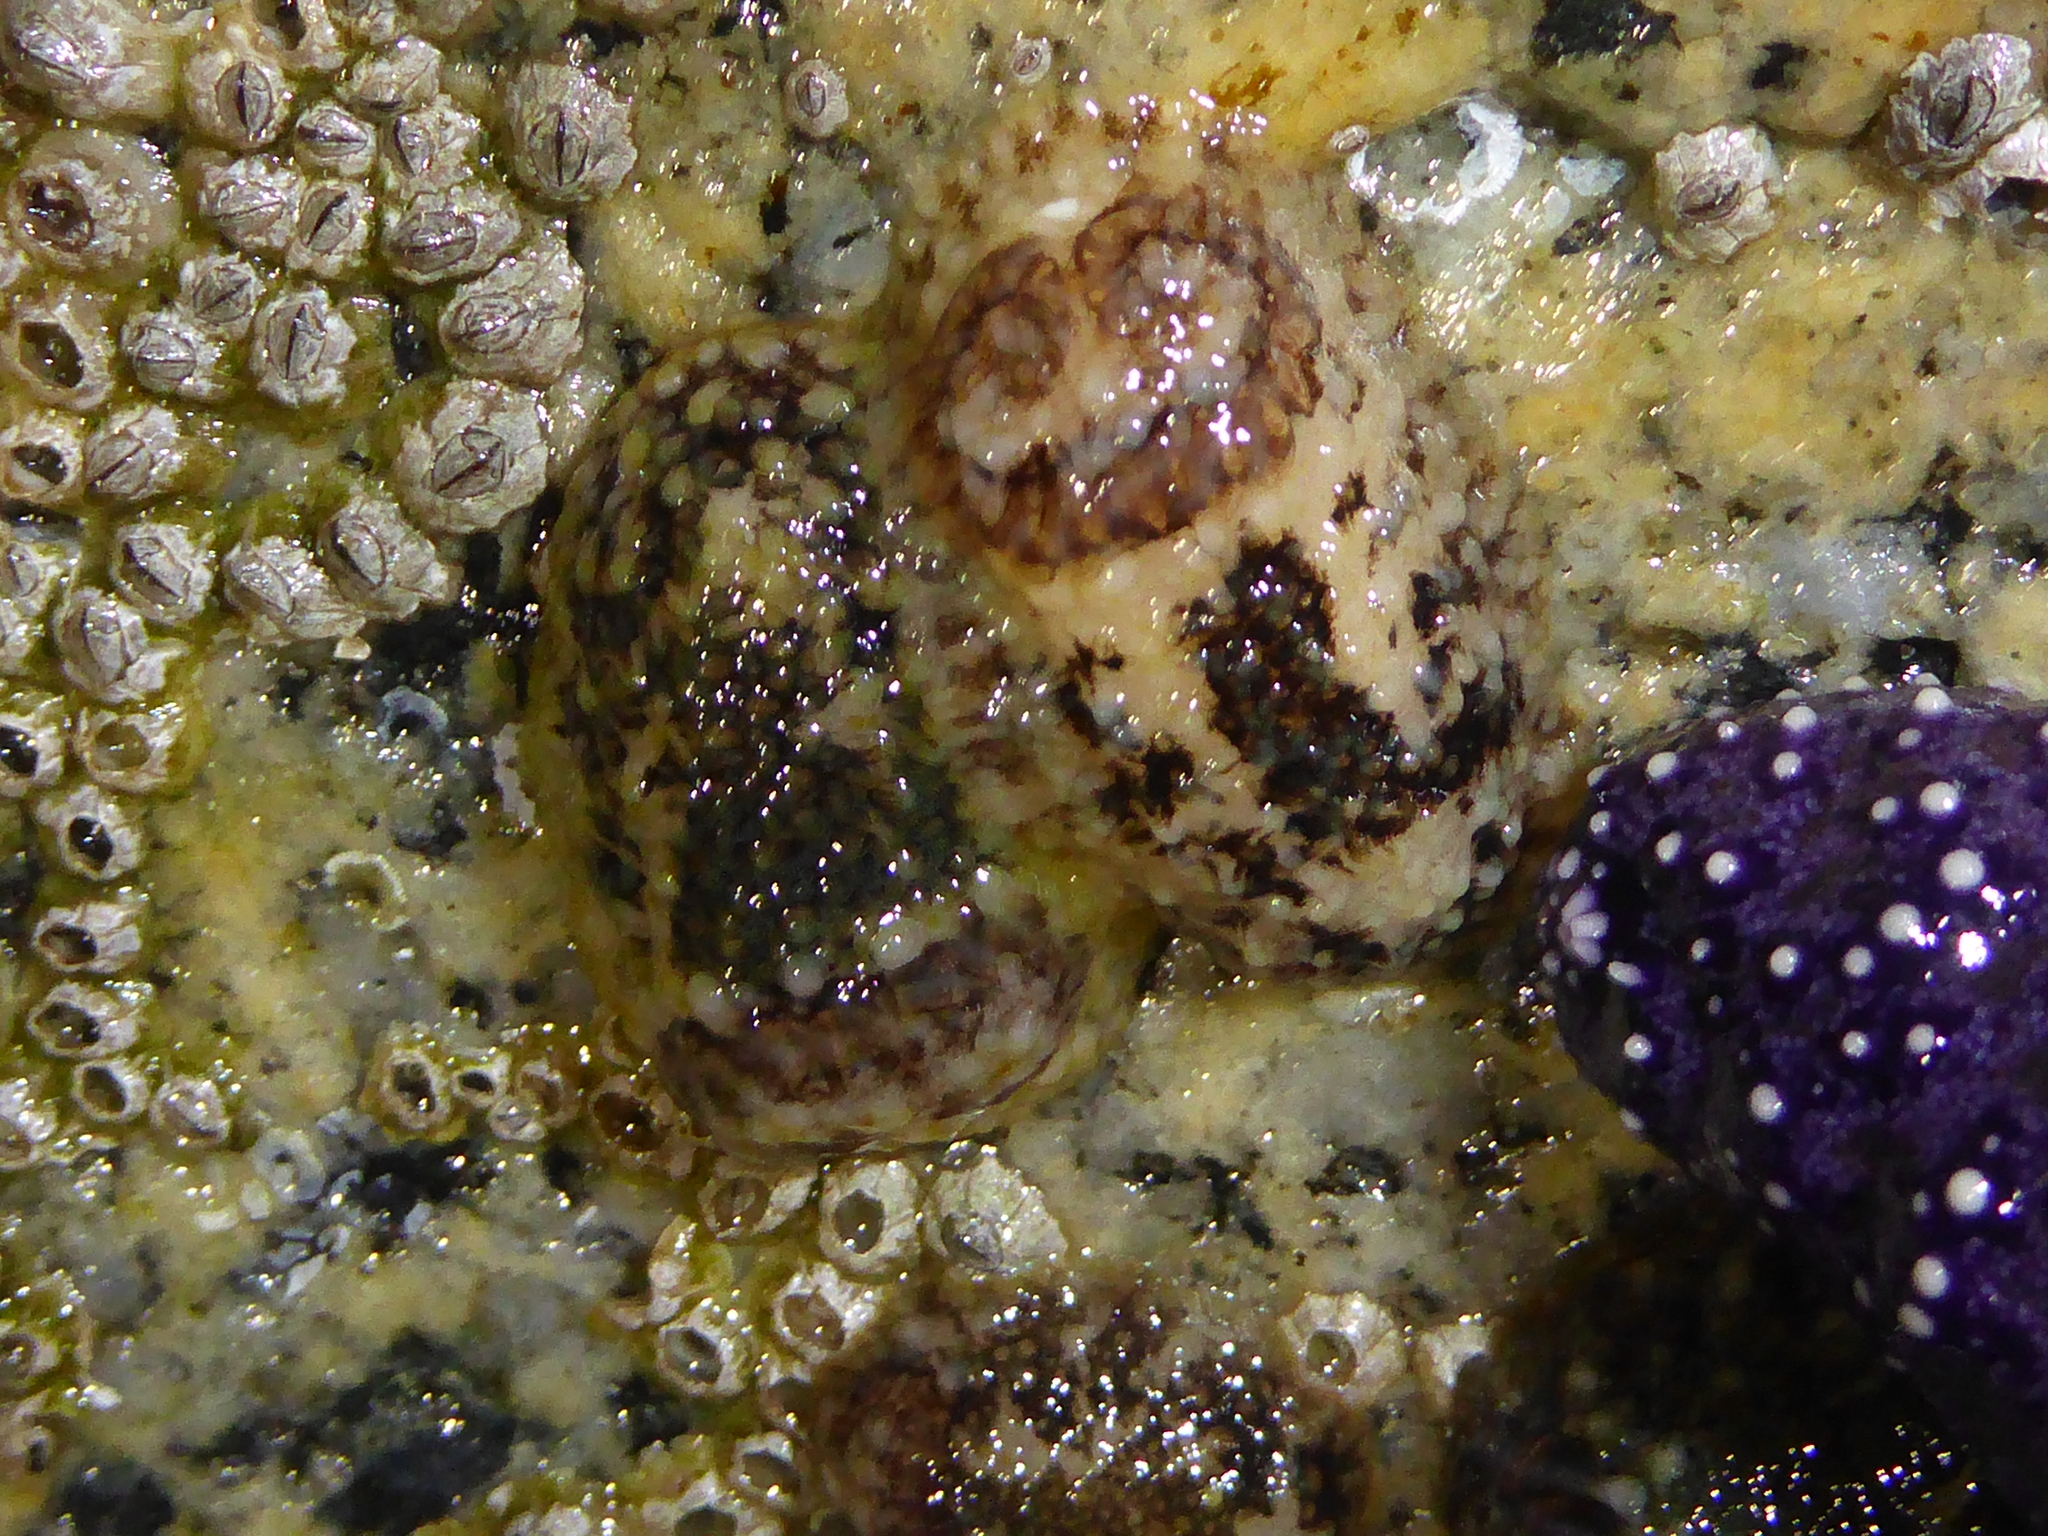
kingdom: Animalia
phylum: Mollusca
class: Gastropoda
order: Nudibranchia
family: Onchidorididae
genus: Onchidoris
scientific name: Onchidoris bilamellata
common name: Barnacle-eating onchidoris
